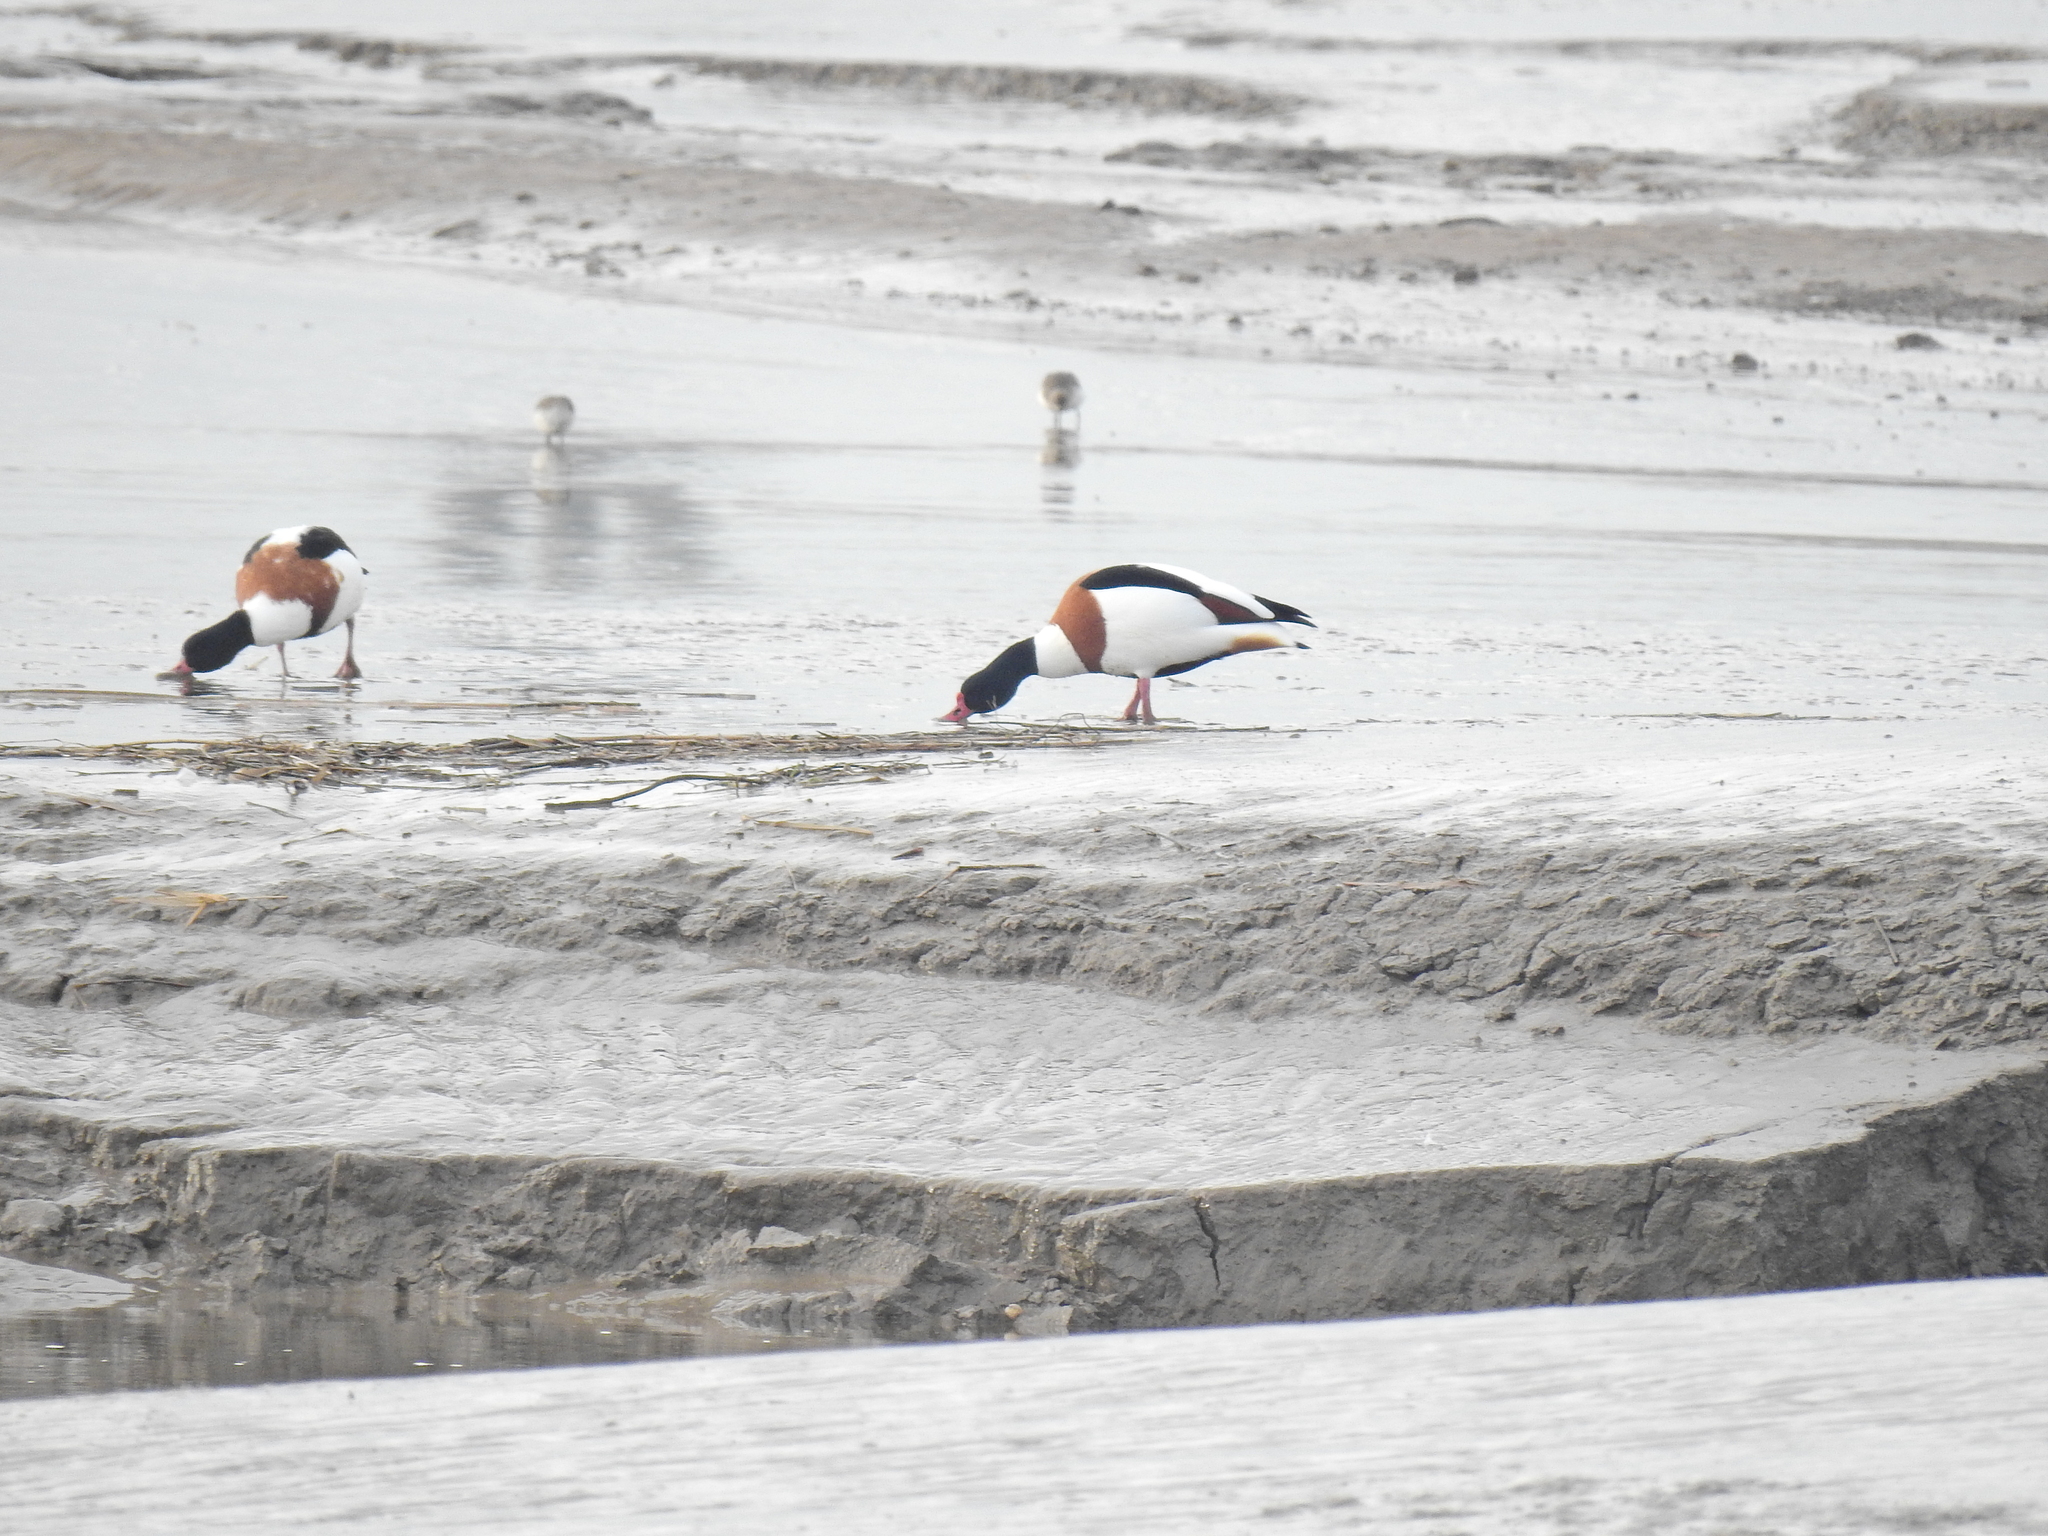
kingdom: Animalia
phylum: Chordata
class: Aves
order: Anseriformes
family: Anatidae
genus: Tadorna
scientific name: Tadorna tadorna
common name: Common shelduck
